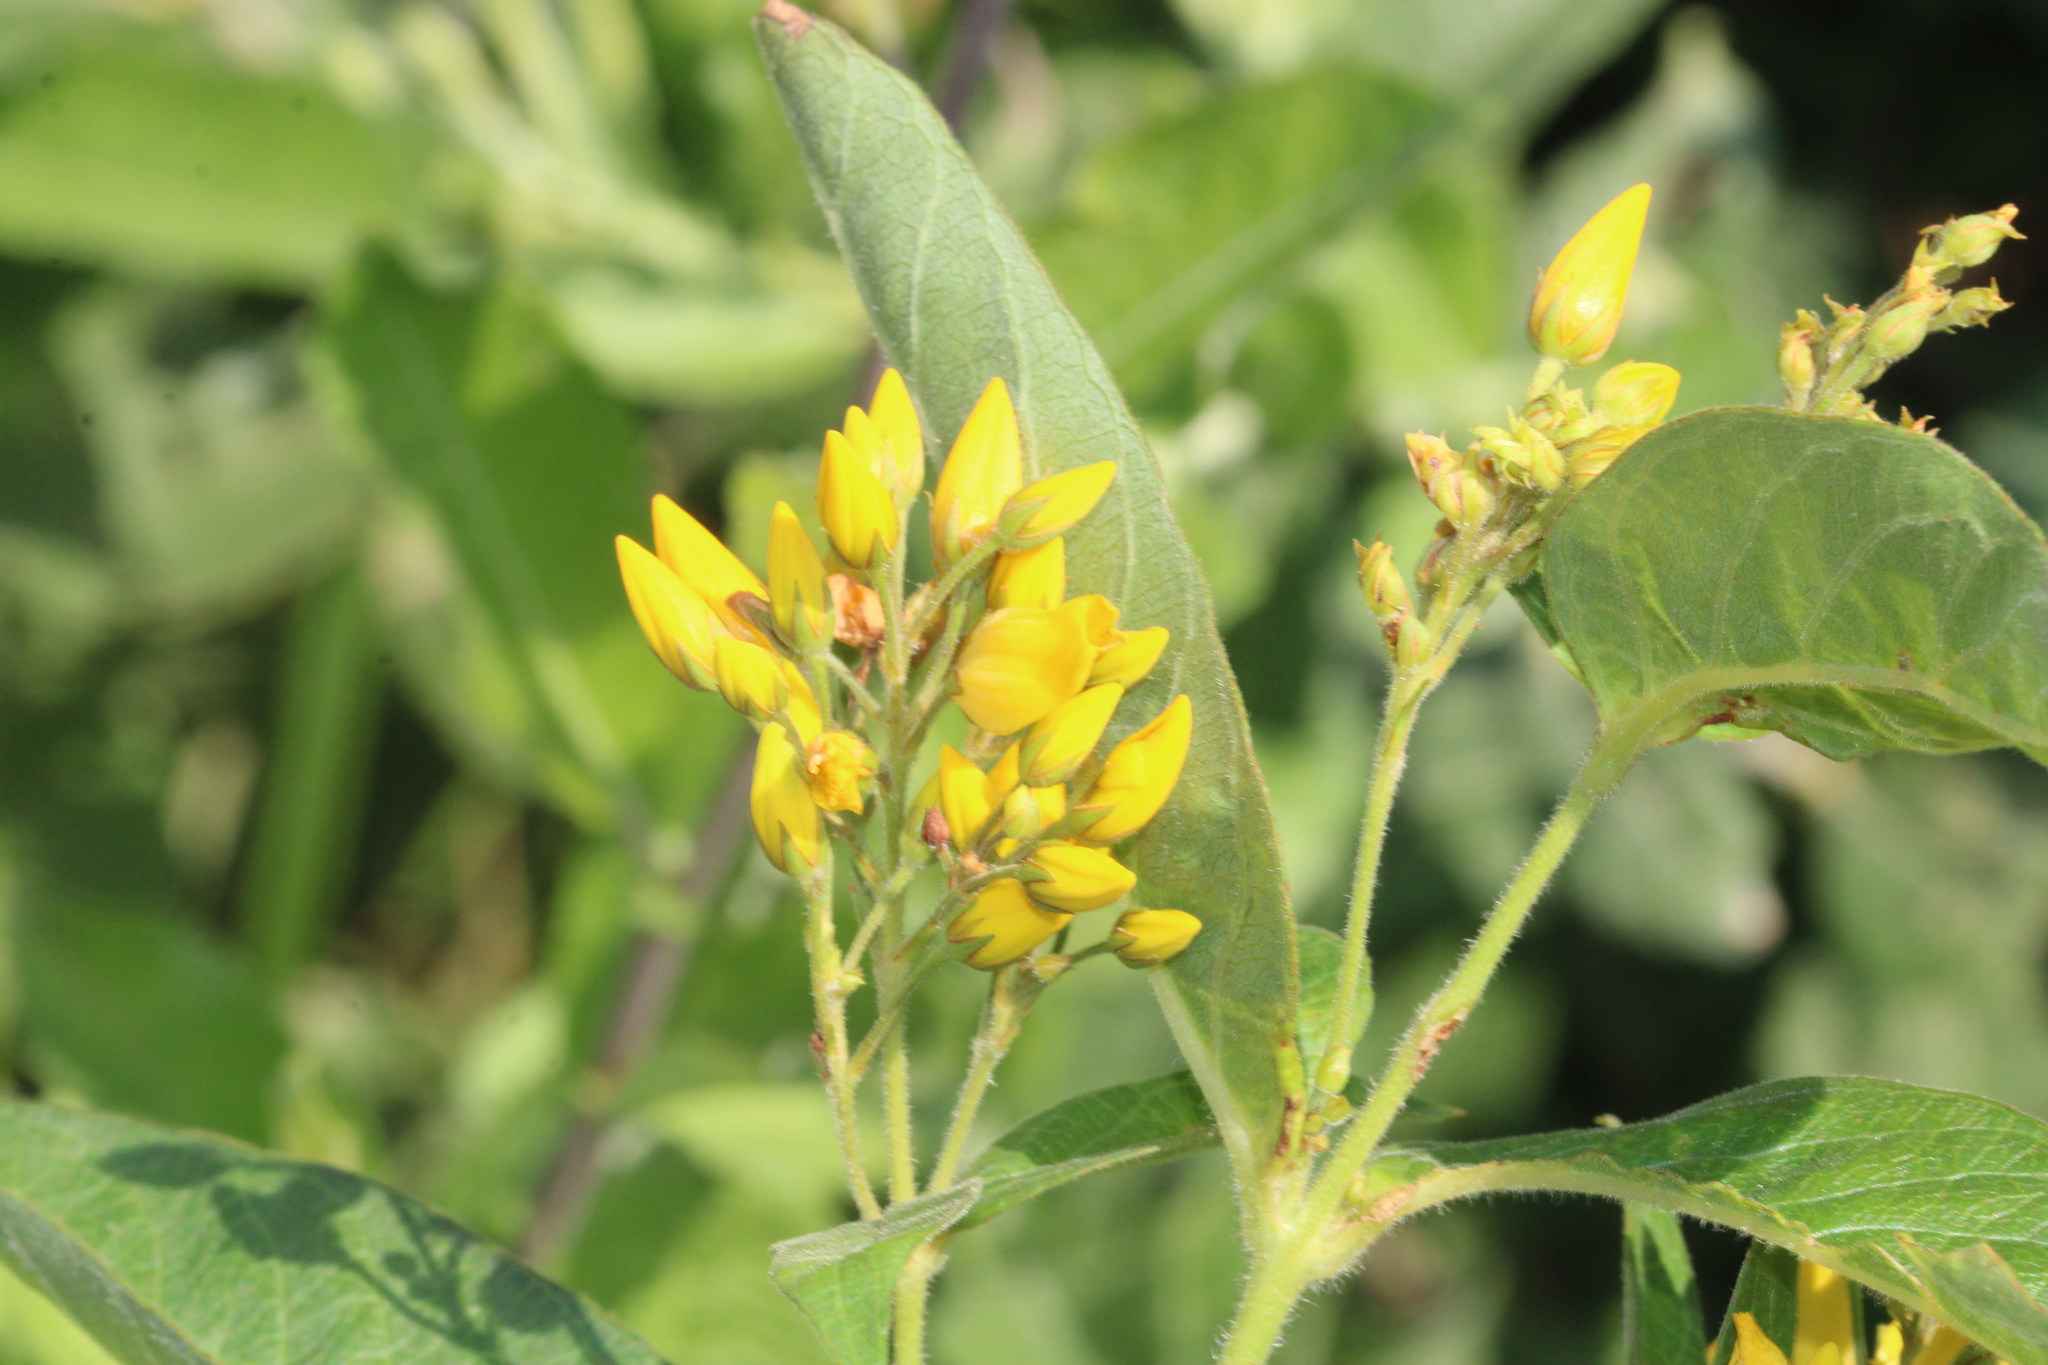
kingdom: Plantae
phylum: Tracheophyta
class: Magnoliopsida
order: Ericales
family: Primulaceae
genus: Lysimachia
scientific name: Lysimachia vulgaris
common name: Yellow loosestrife
